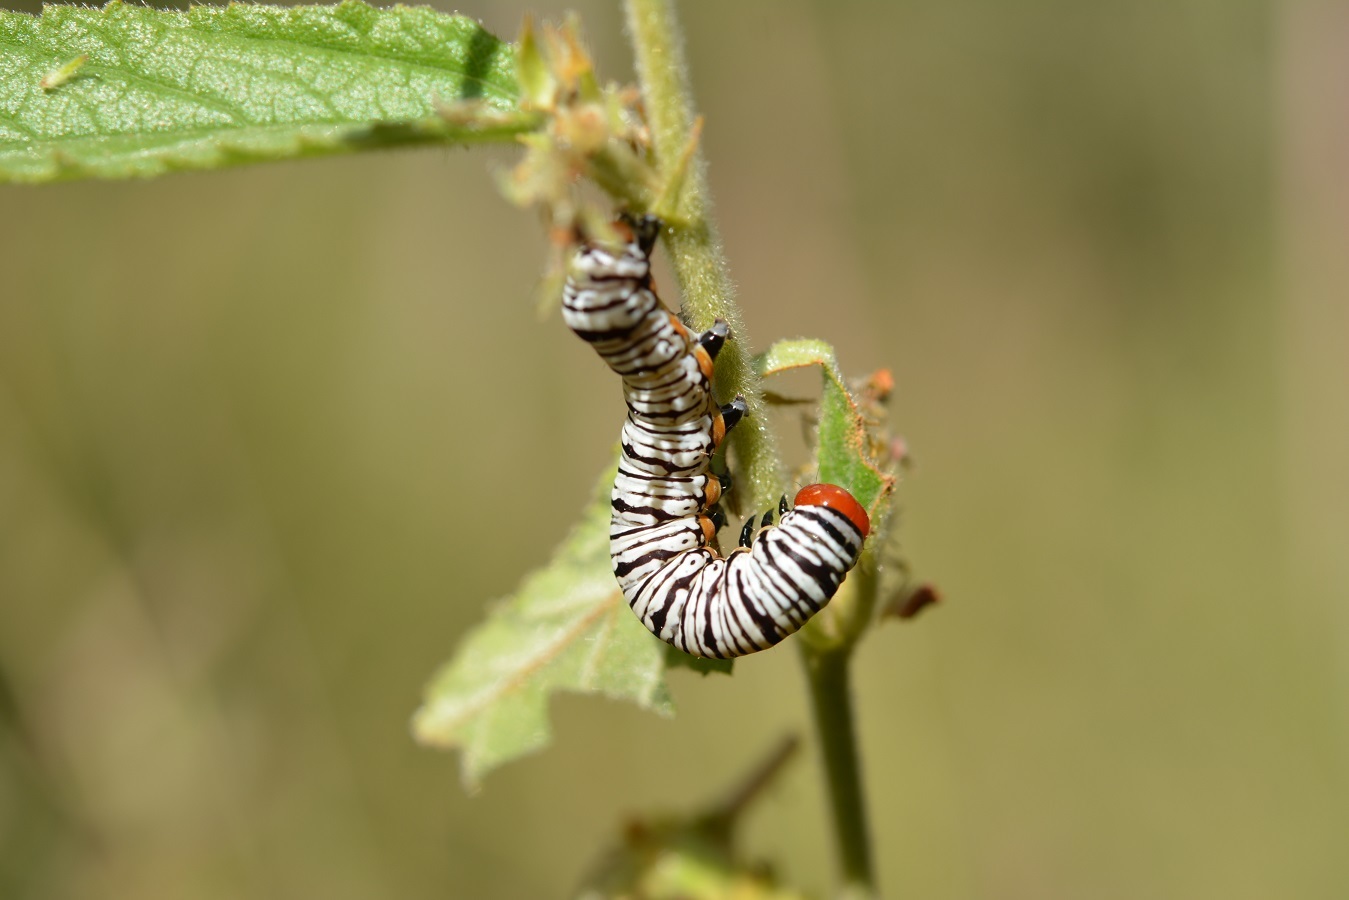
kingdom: Animalia
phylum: Arthropoda
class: Insecta
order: Lepidoptera
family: Erebidae
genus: Diphthera
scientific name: Diphthera festiva
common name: Hieroglyphic moth
